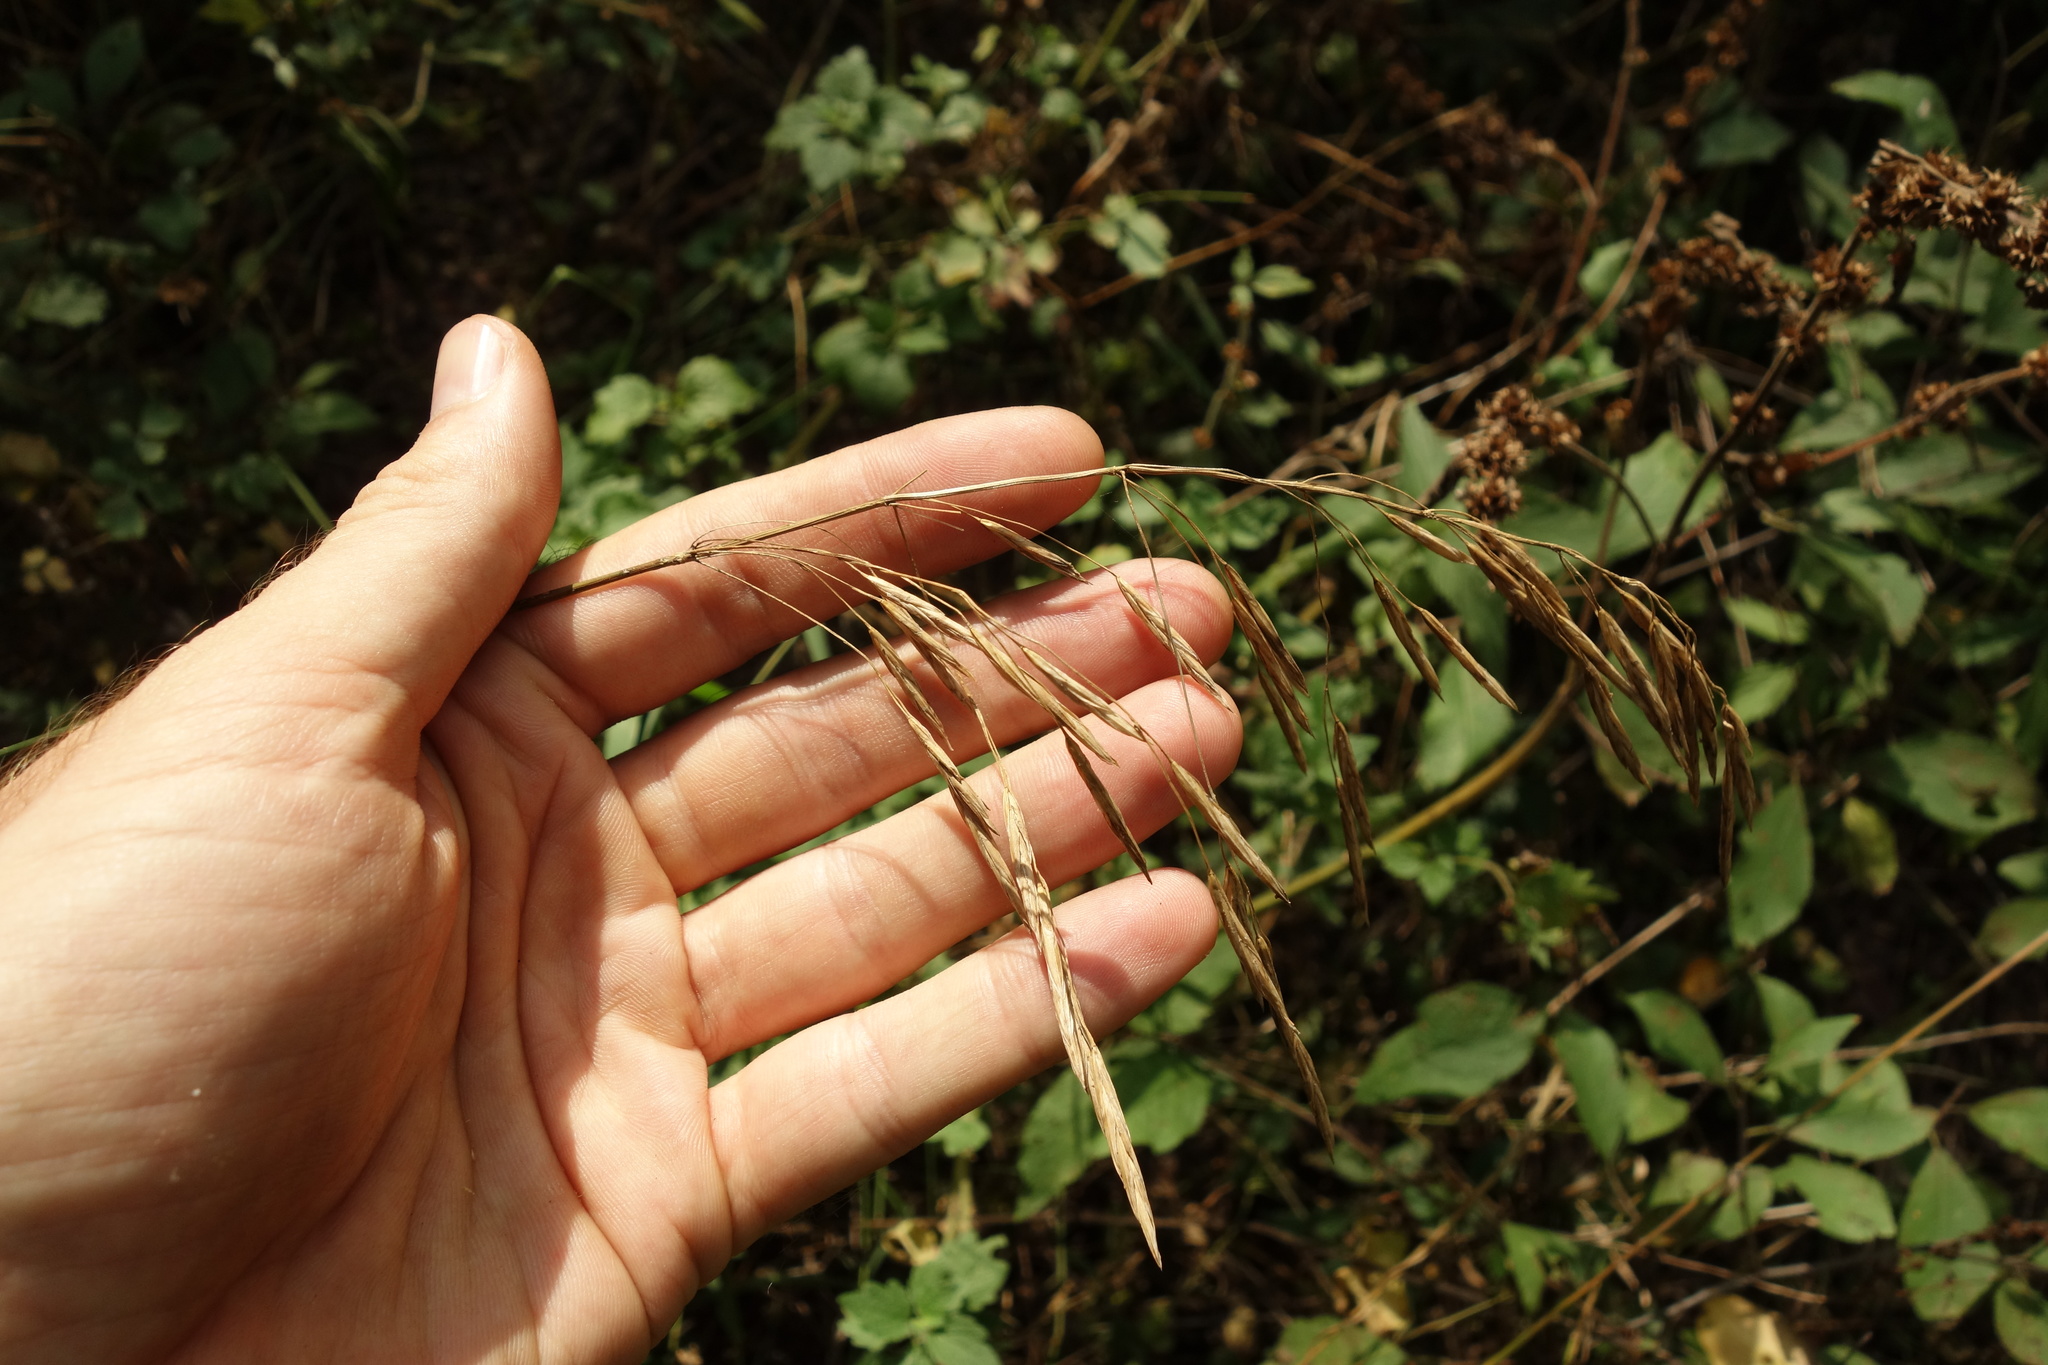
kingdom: Plantae
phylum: Tracheophyta
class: Liliopsida
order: Poales
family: Poaceae
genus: Bromus
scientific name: Bromus inermis
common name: Smooth brome
